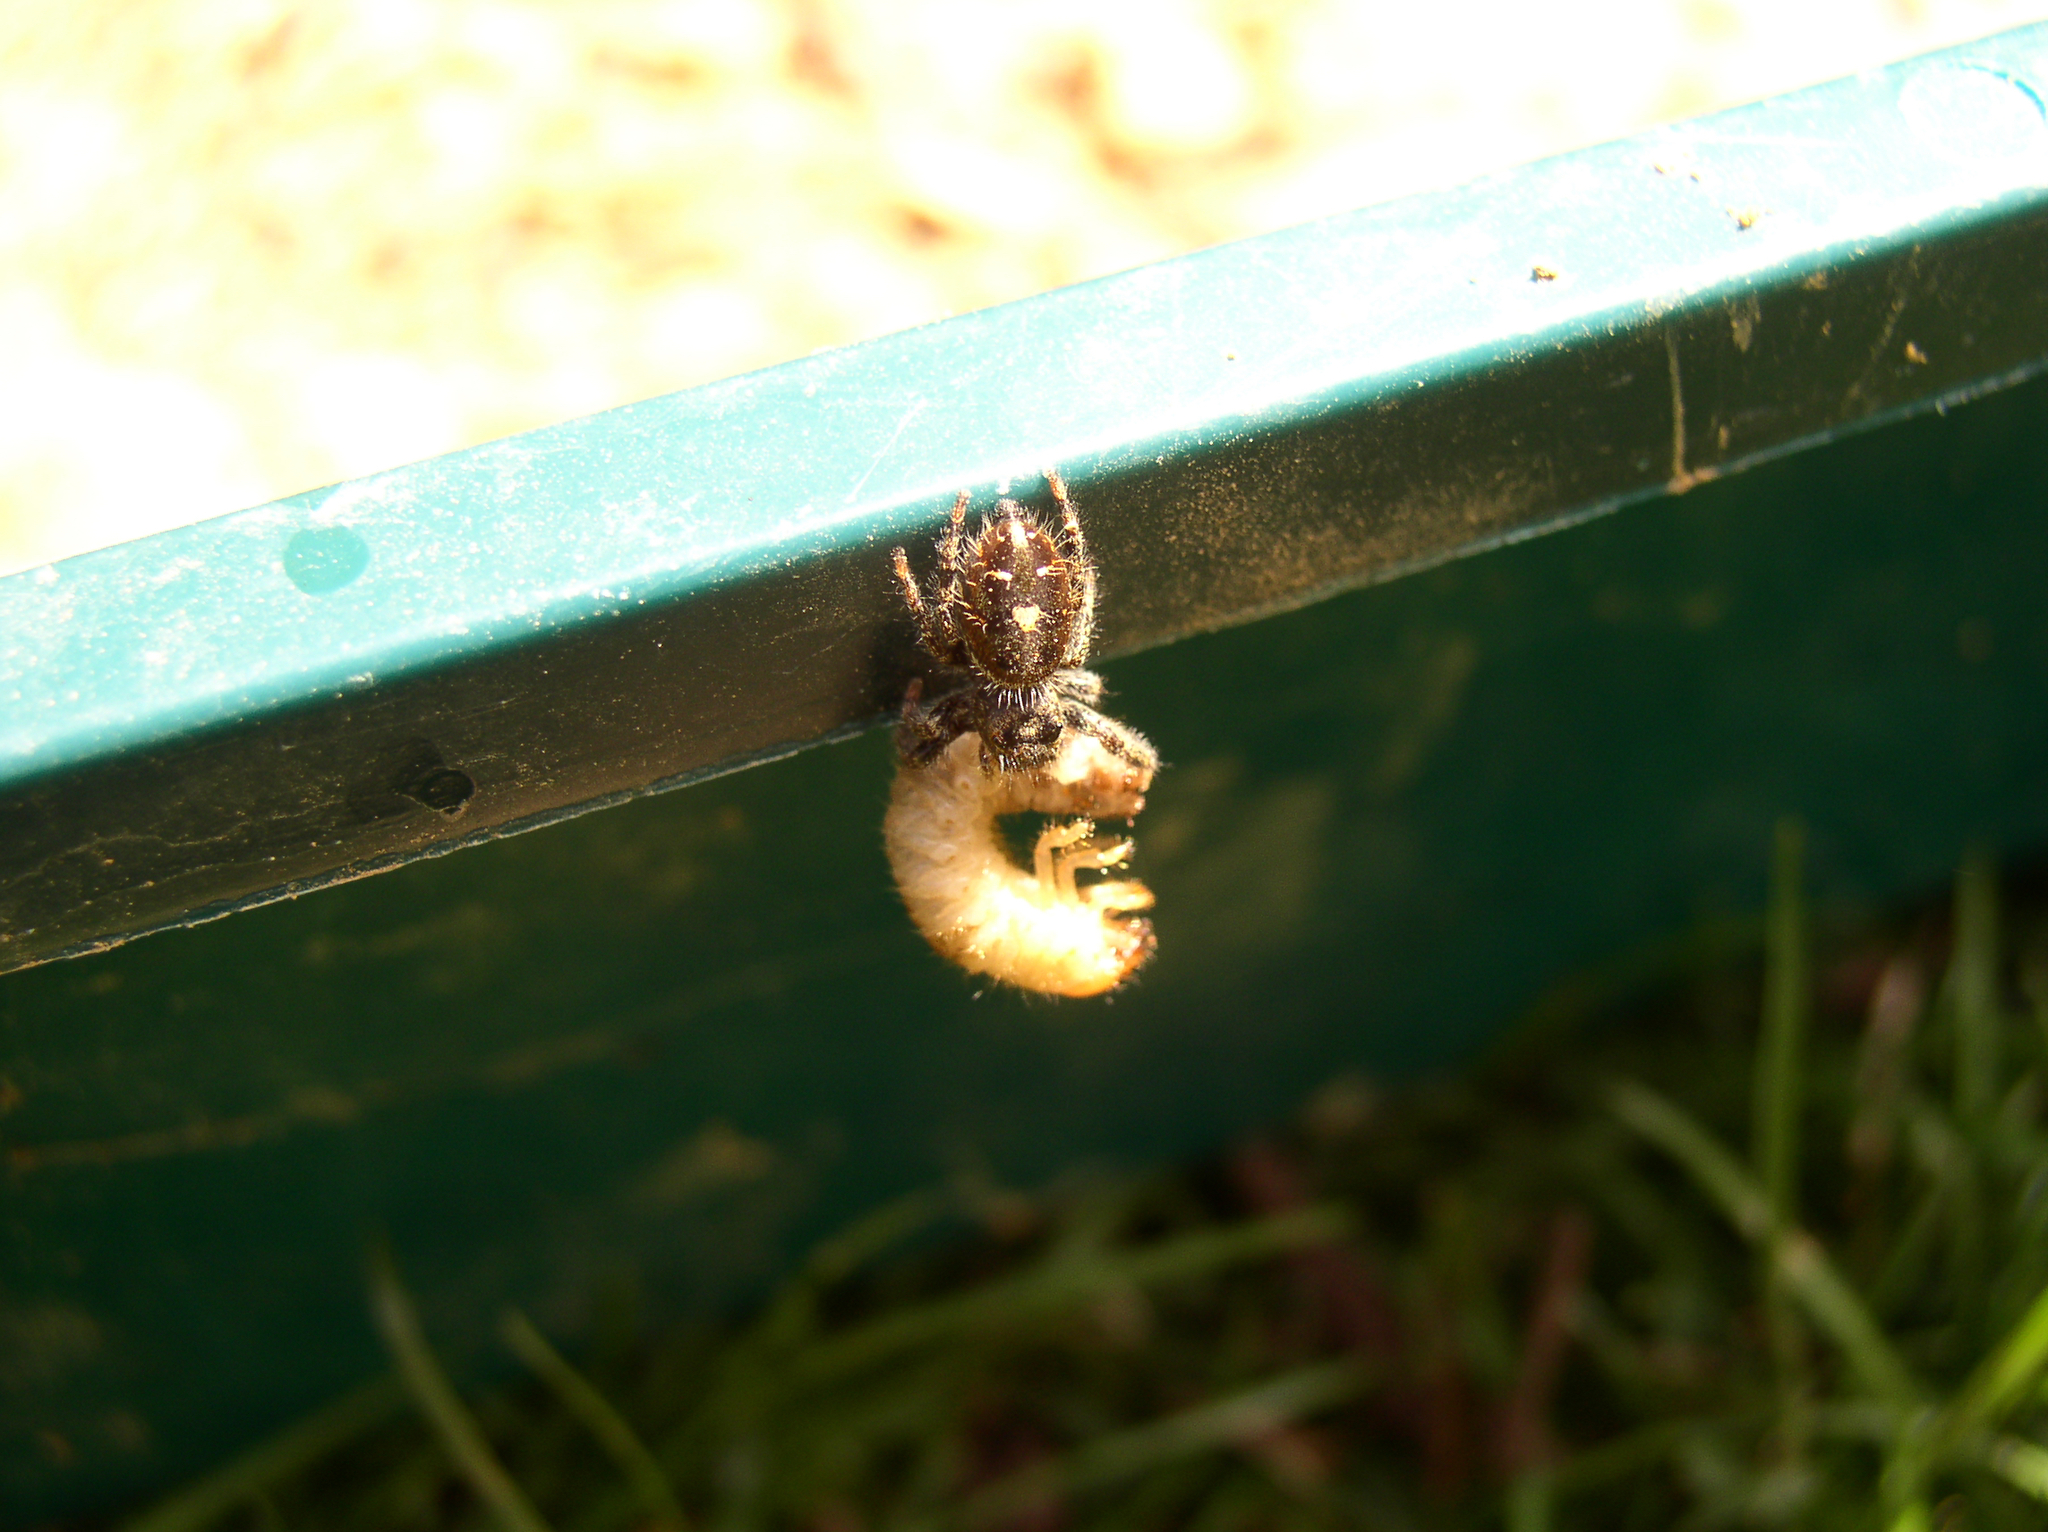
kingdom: Animalia
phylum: Arthropoda
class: Arachnida
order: Araneae
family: Salticidae
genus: Phidippus
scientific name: Phidippus audax
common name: Bold jumper
